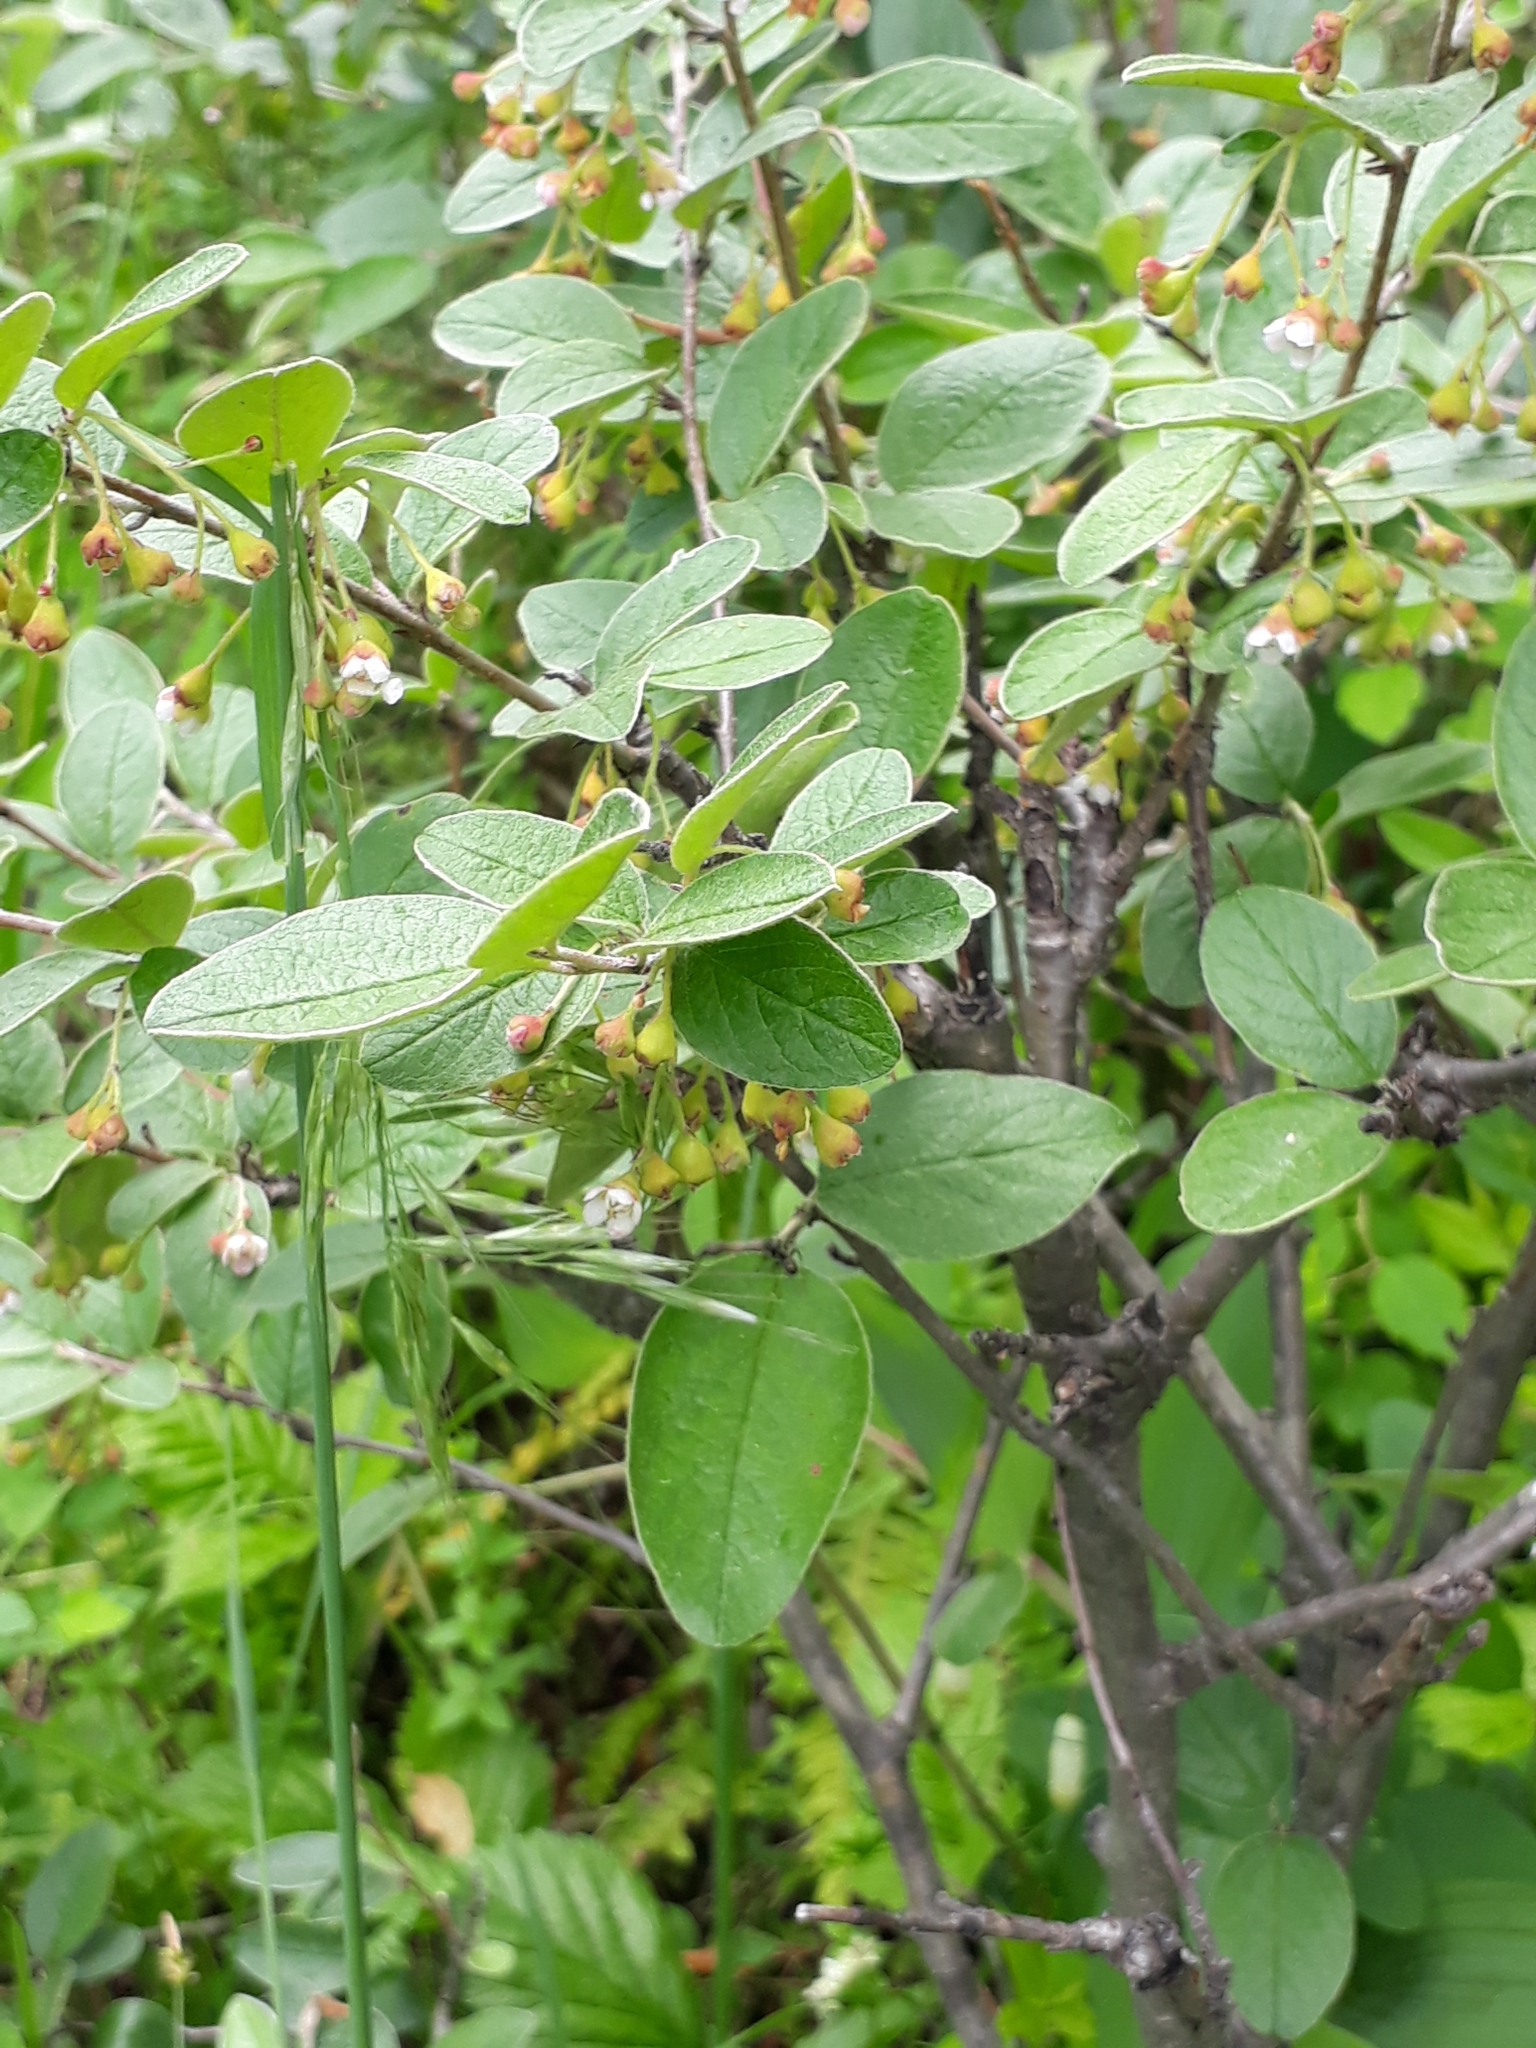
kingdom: Plantae
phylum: Tracheophyta
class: Magnoliopsida
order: Rosales
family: Rosaceae
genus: Cotoneaster
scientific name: Cotoneaster melanocarpus
